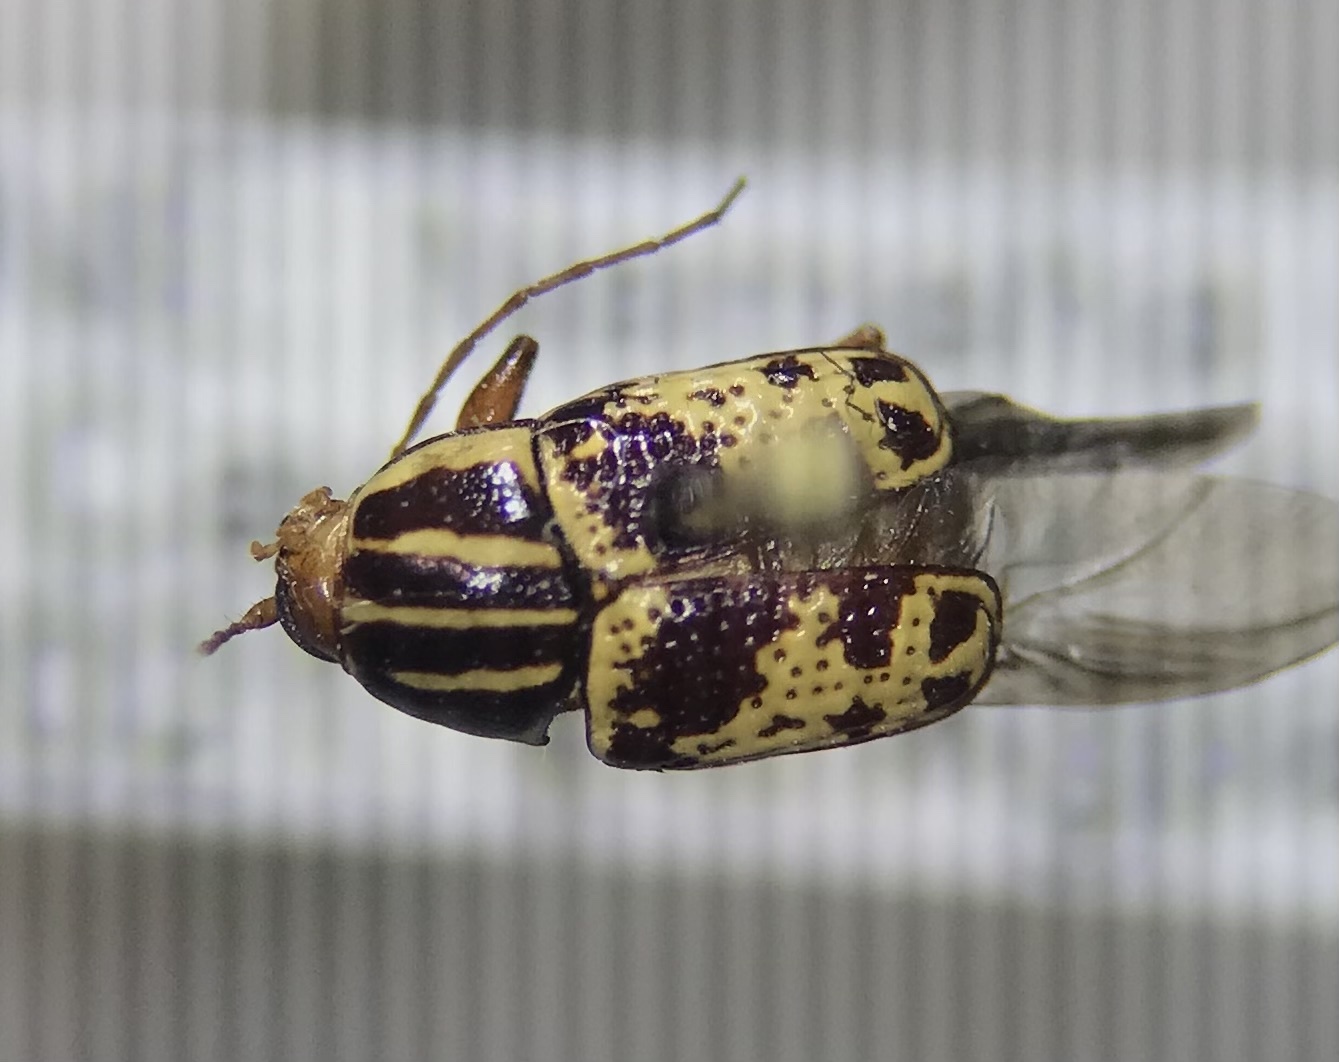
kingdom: Animalia
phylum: Arthropoda
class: Insecta
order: Coleoptera
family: Chrysomelidae
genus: Cryptocephalus
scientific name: Cryptocephalus leucomelas
